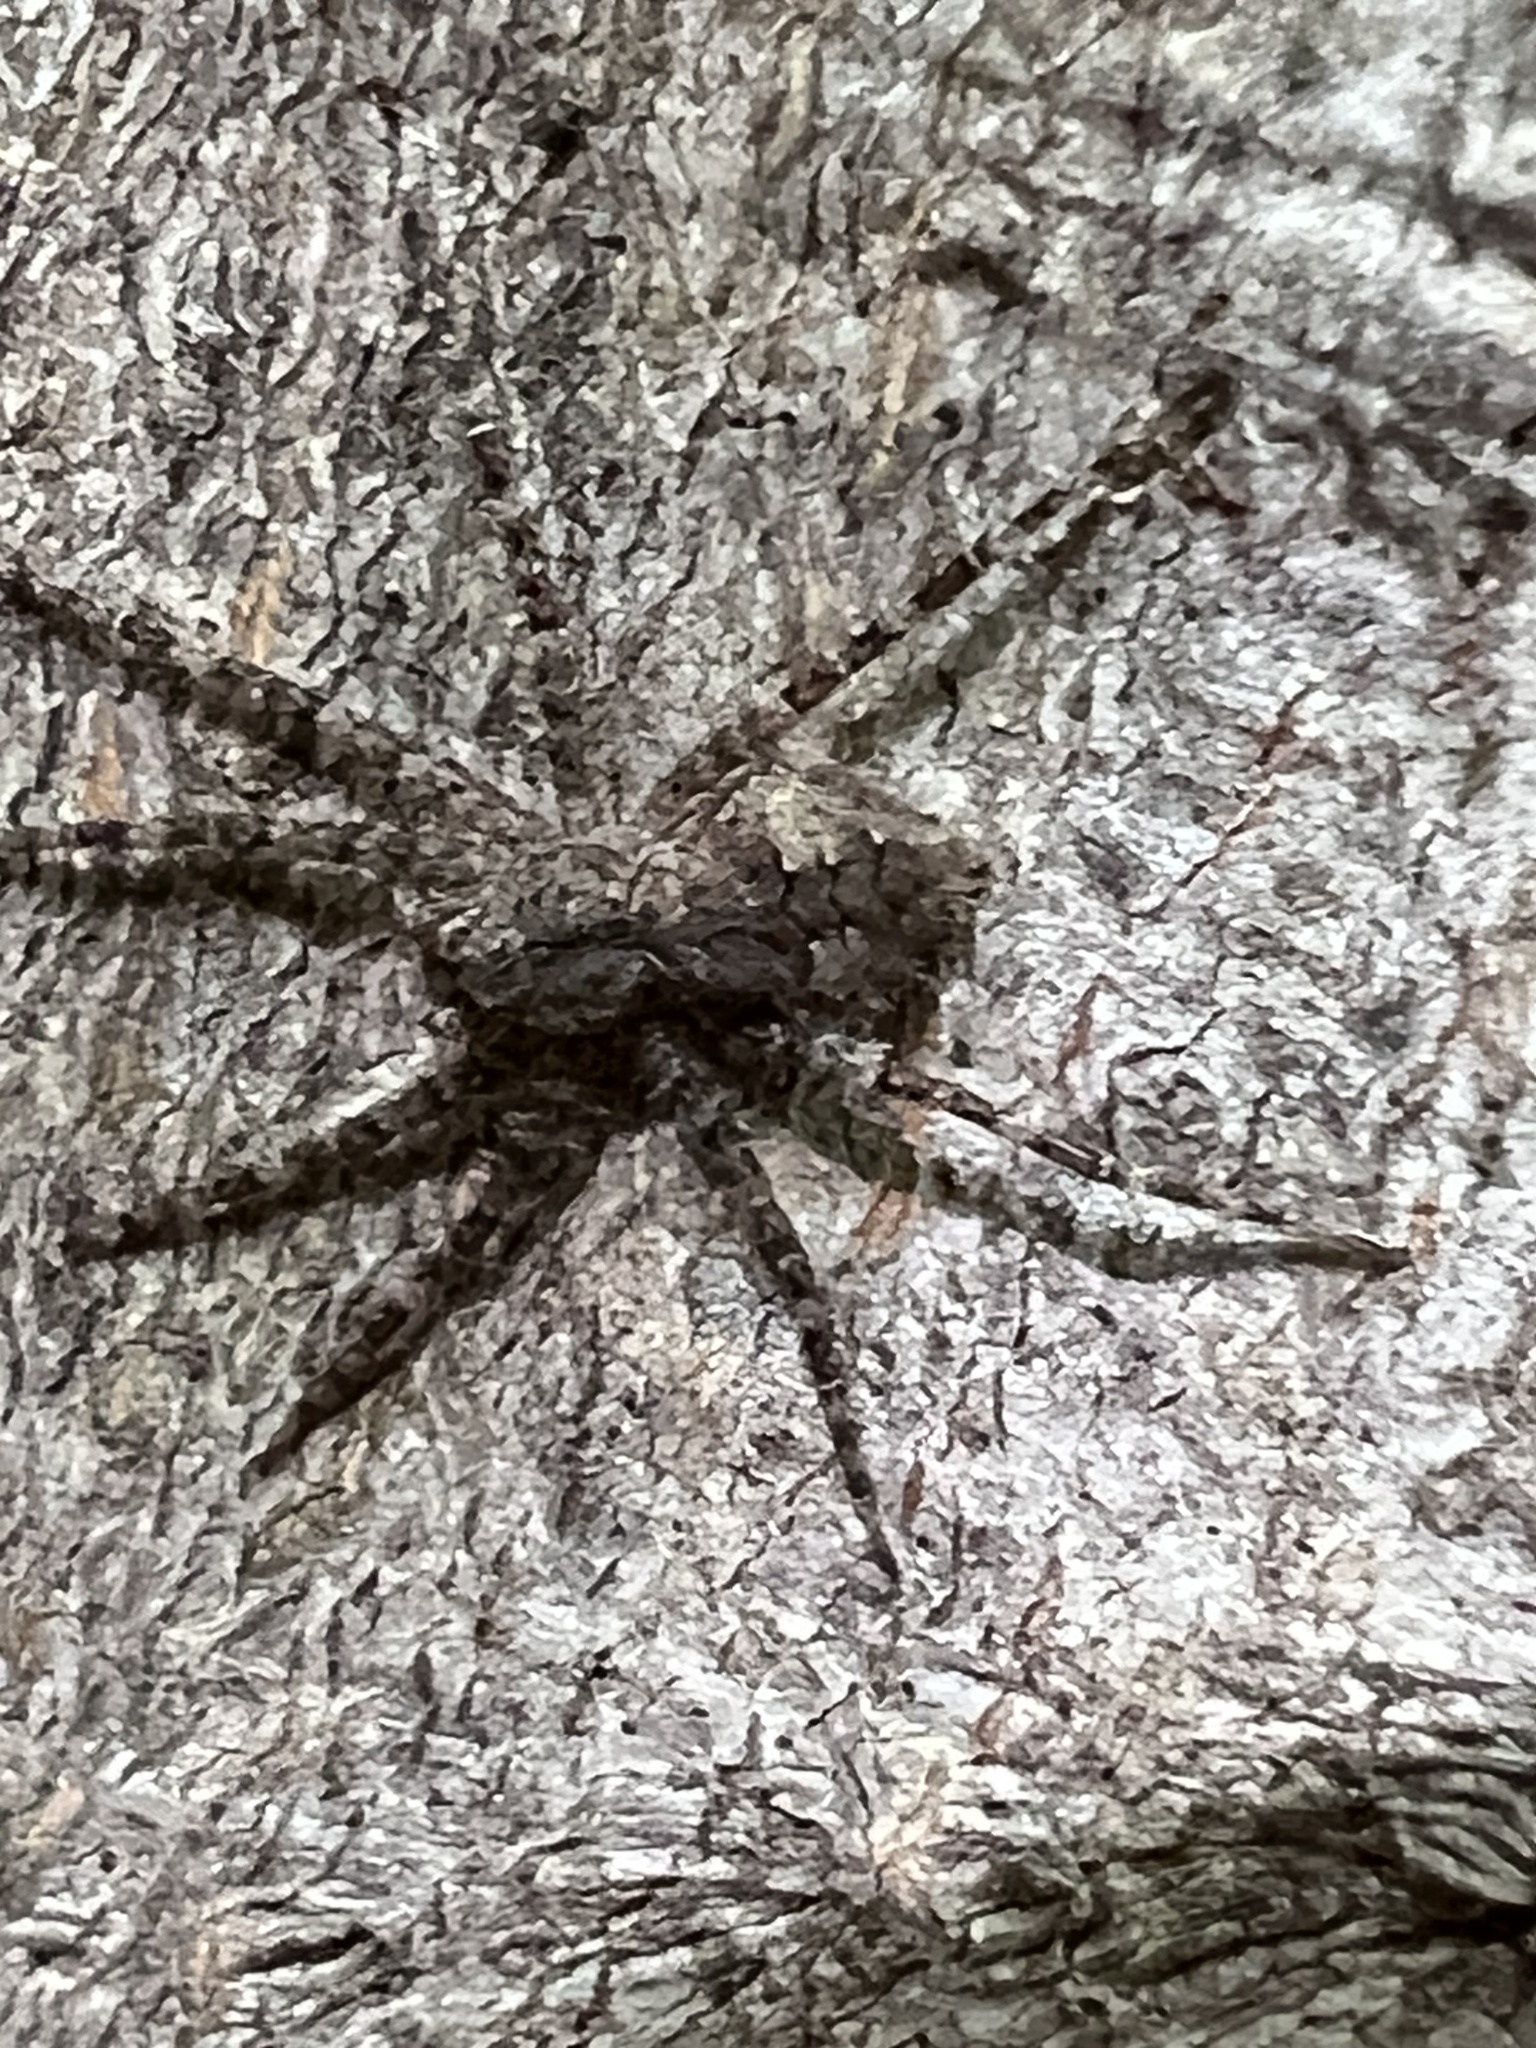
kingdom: Animalia
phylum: Arthropoda
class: Arachnida
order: Araneae
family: Pisauridae
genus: Dolomedes
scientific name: Dolomedes albineus
